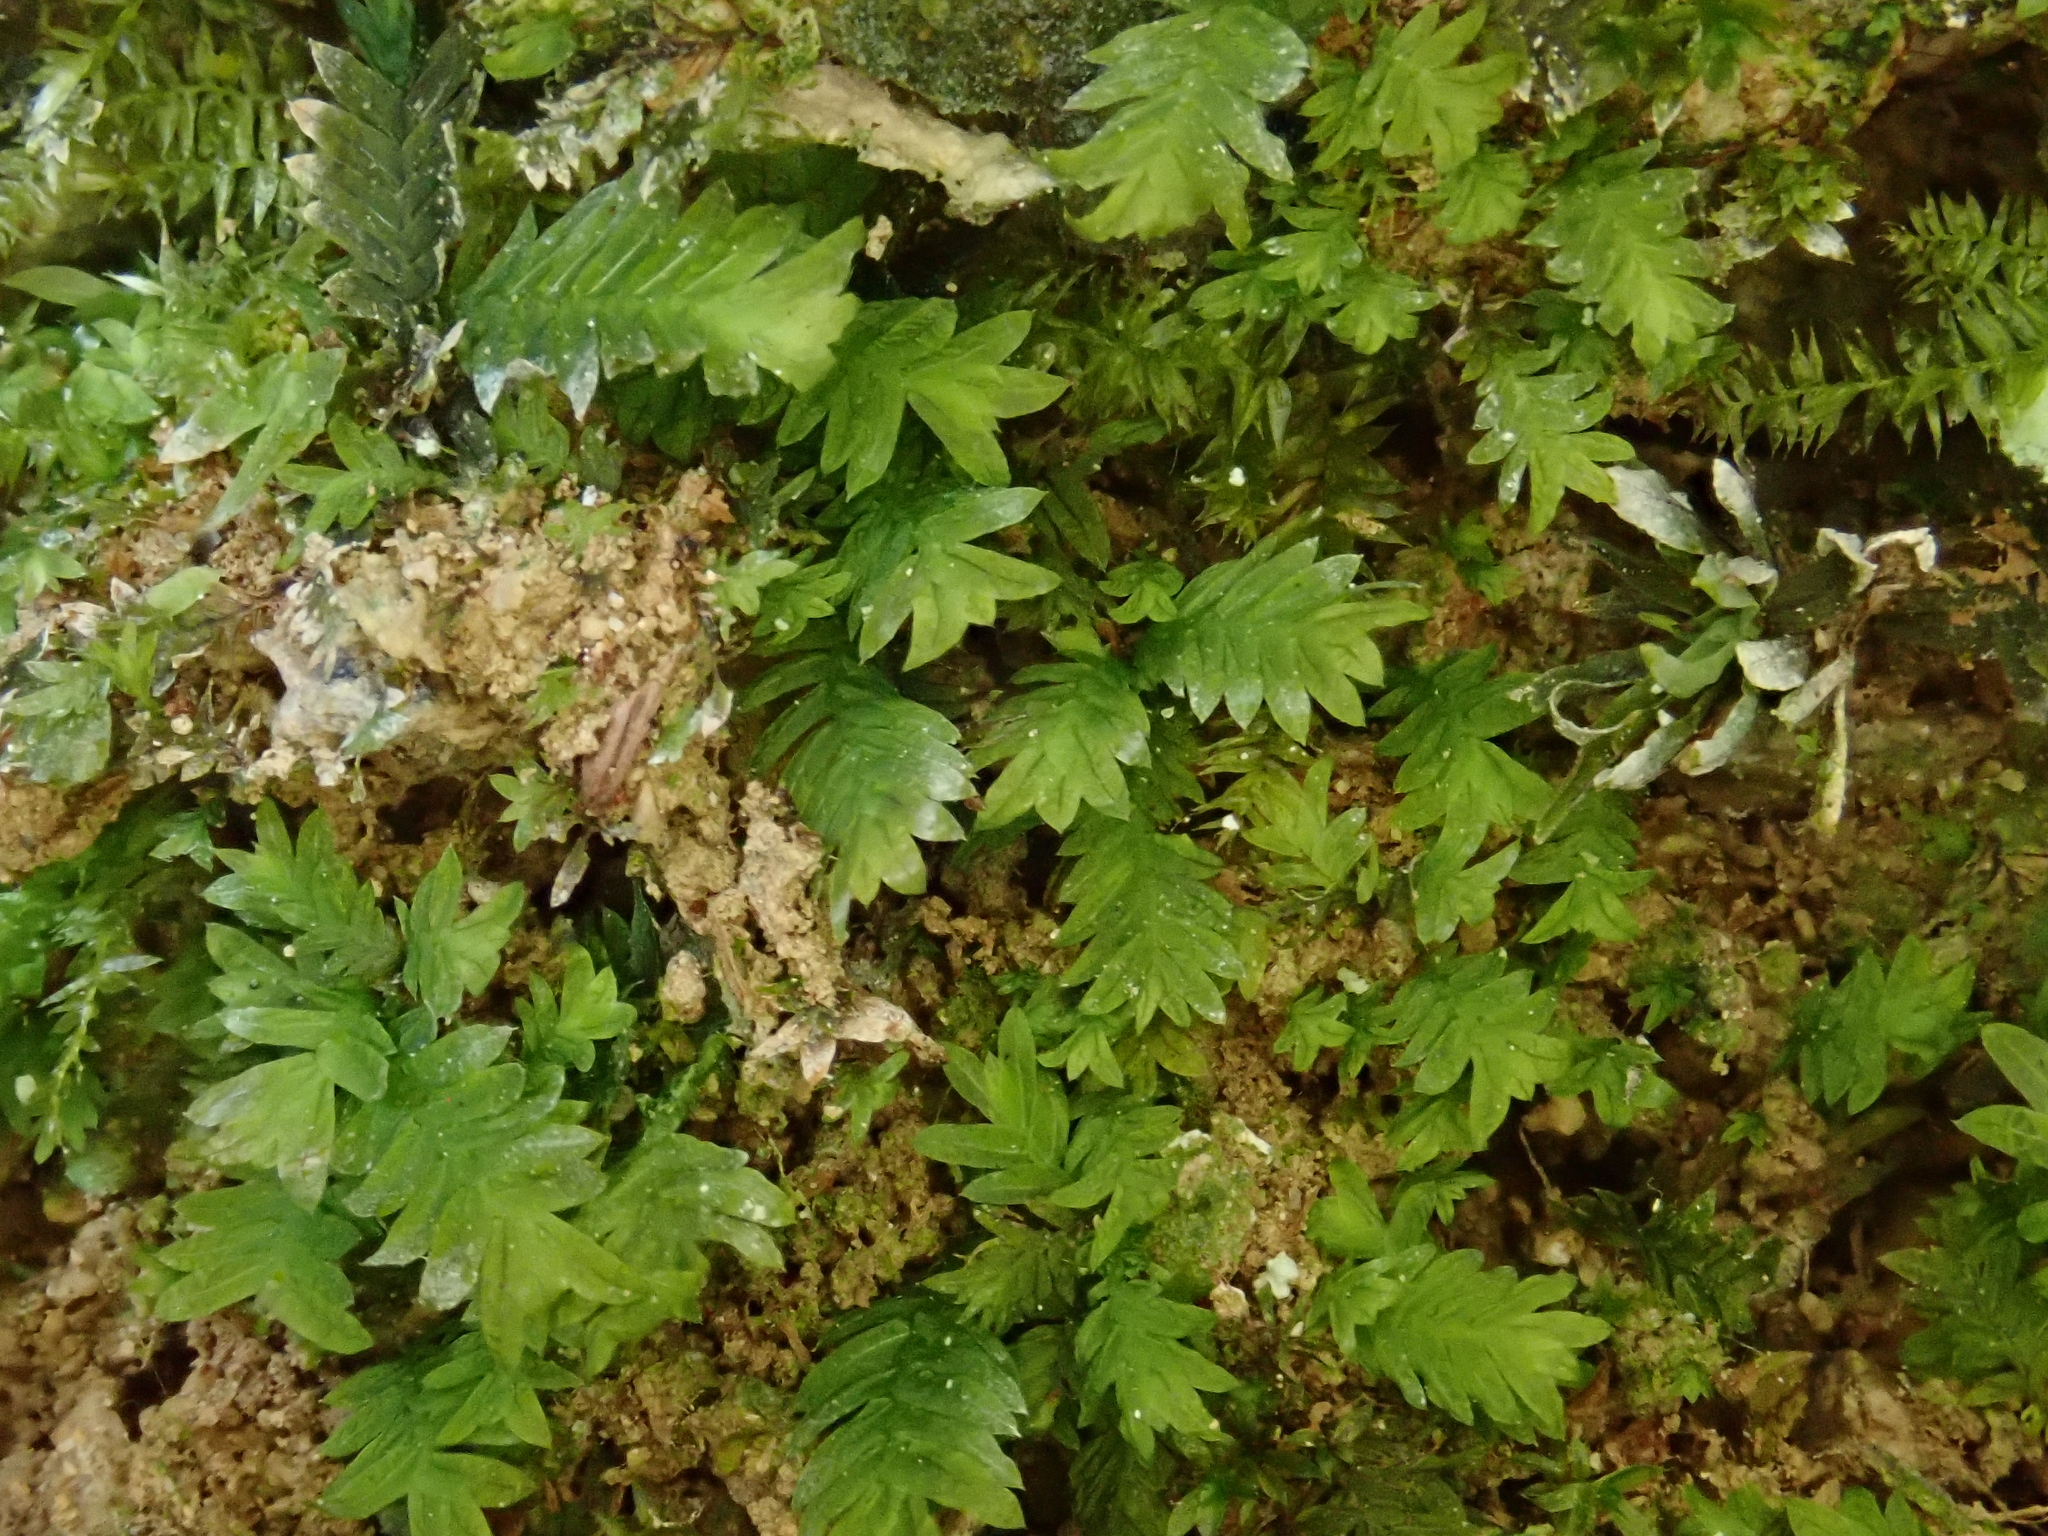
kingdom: Plantae
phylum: Bryophyta
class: Bryopsida
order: Dicranales
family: Fissidentaceae
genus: Fissidens
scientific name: Fissidens taxifolius
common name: Yew-leaved pocket moss
